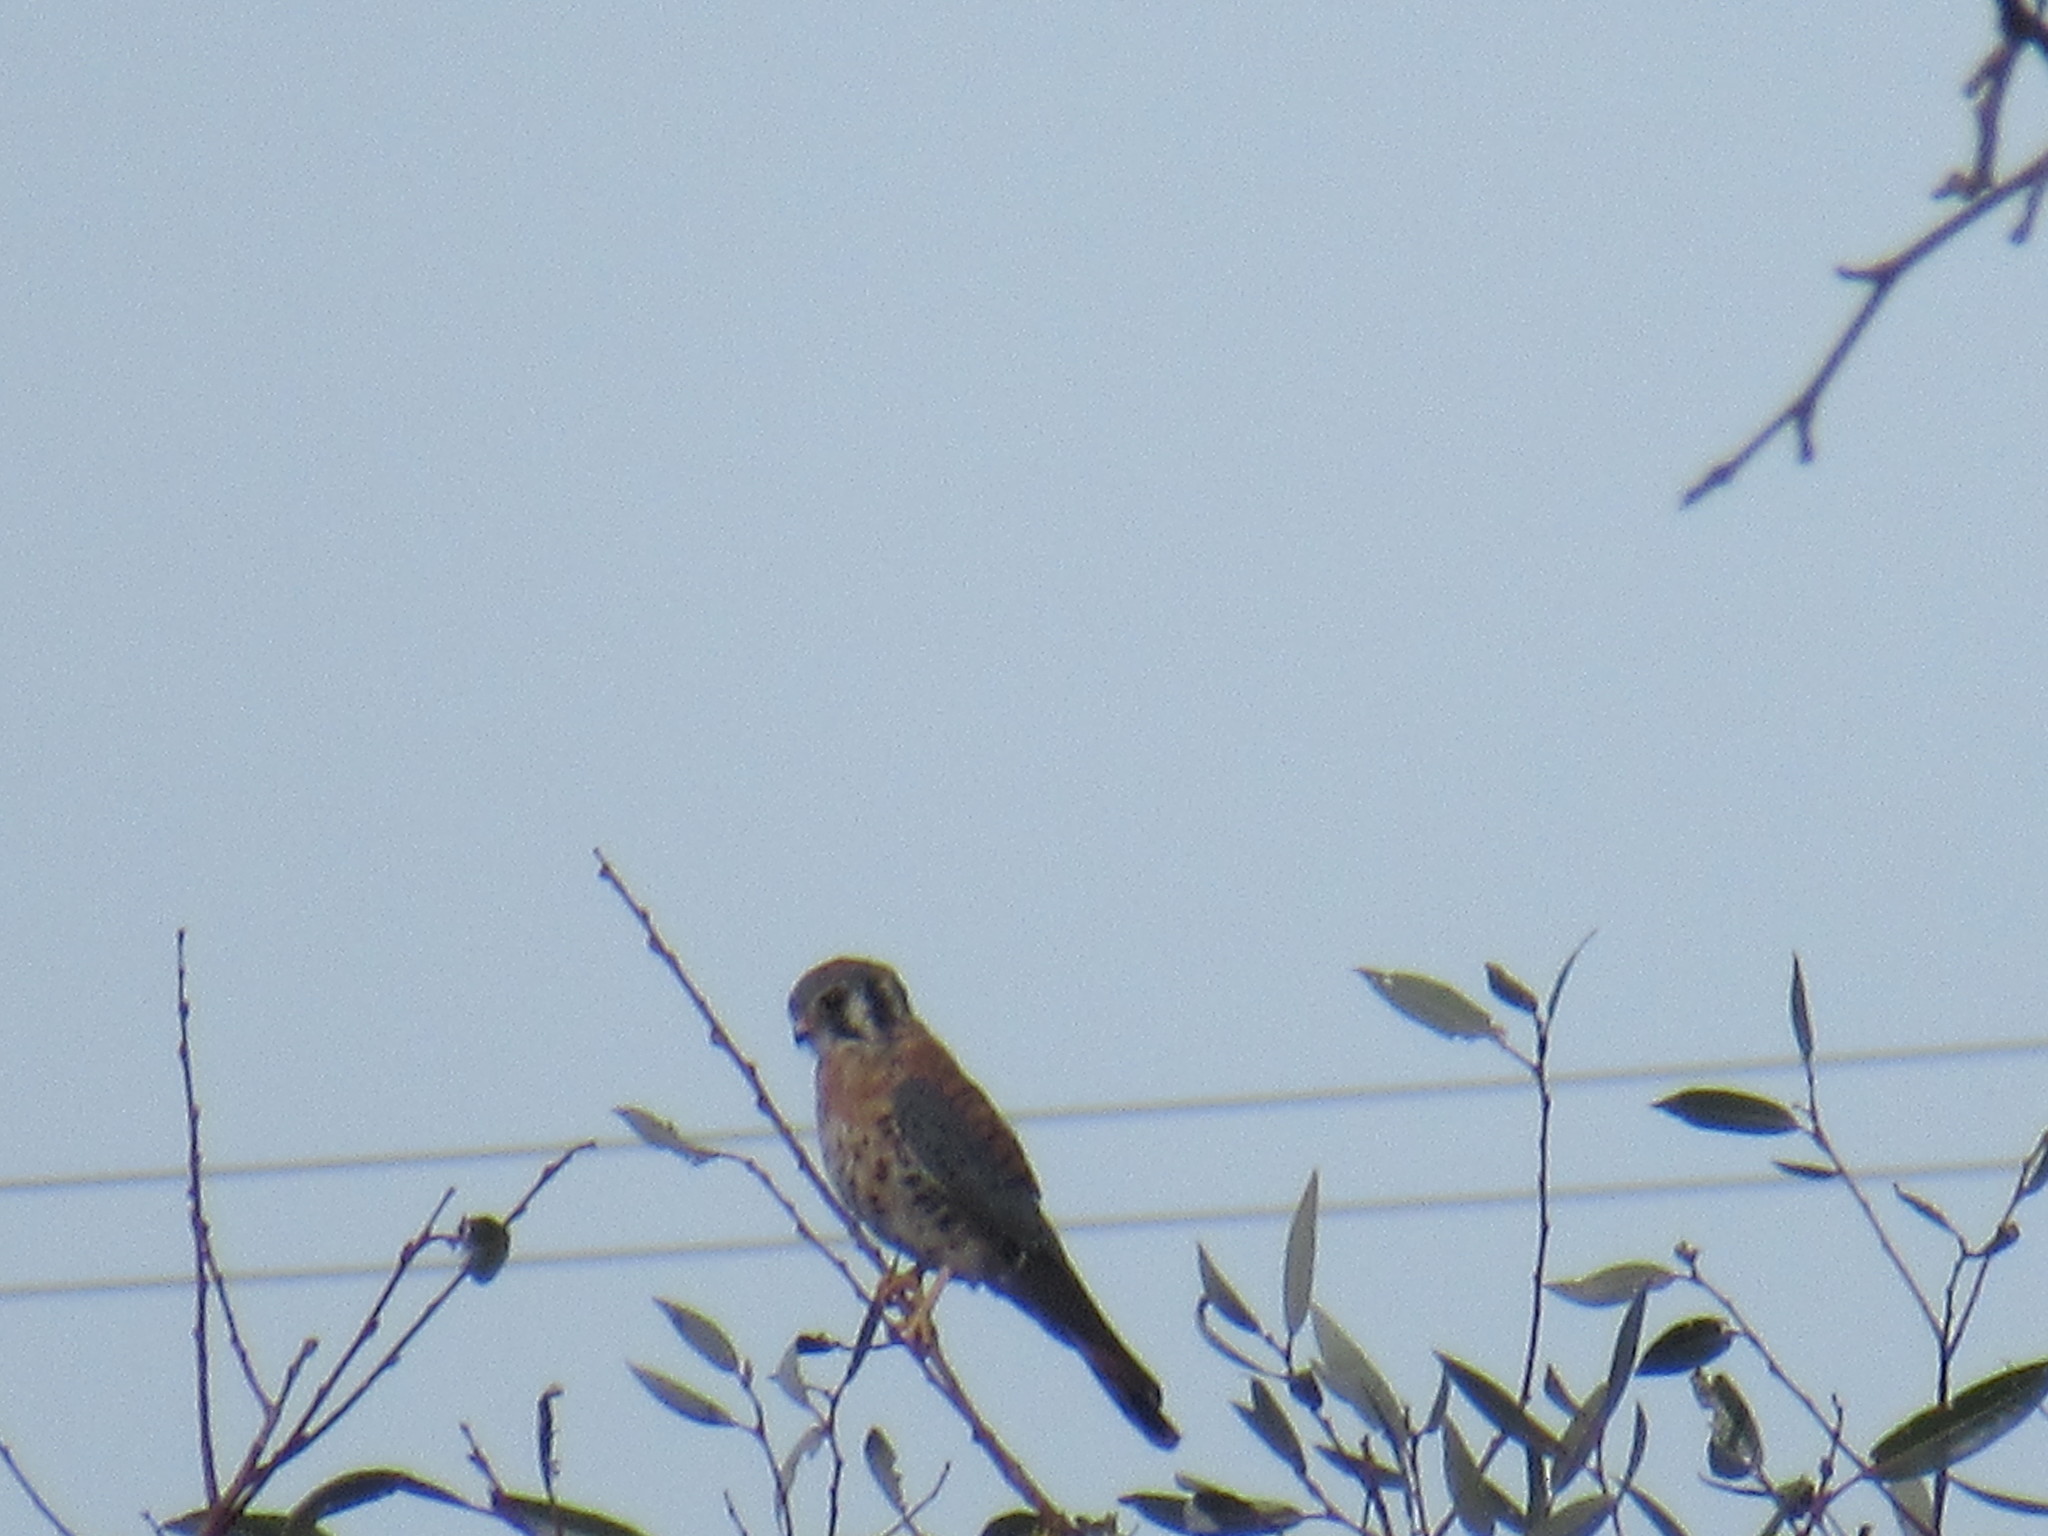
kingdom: Animalia
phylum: Chordata
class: Aves
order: Falconiformes
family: Falconidae
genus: Falco
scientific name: Falco sparverius
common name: American kestrel
